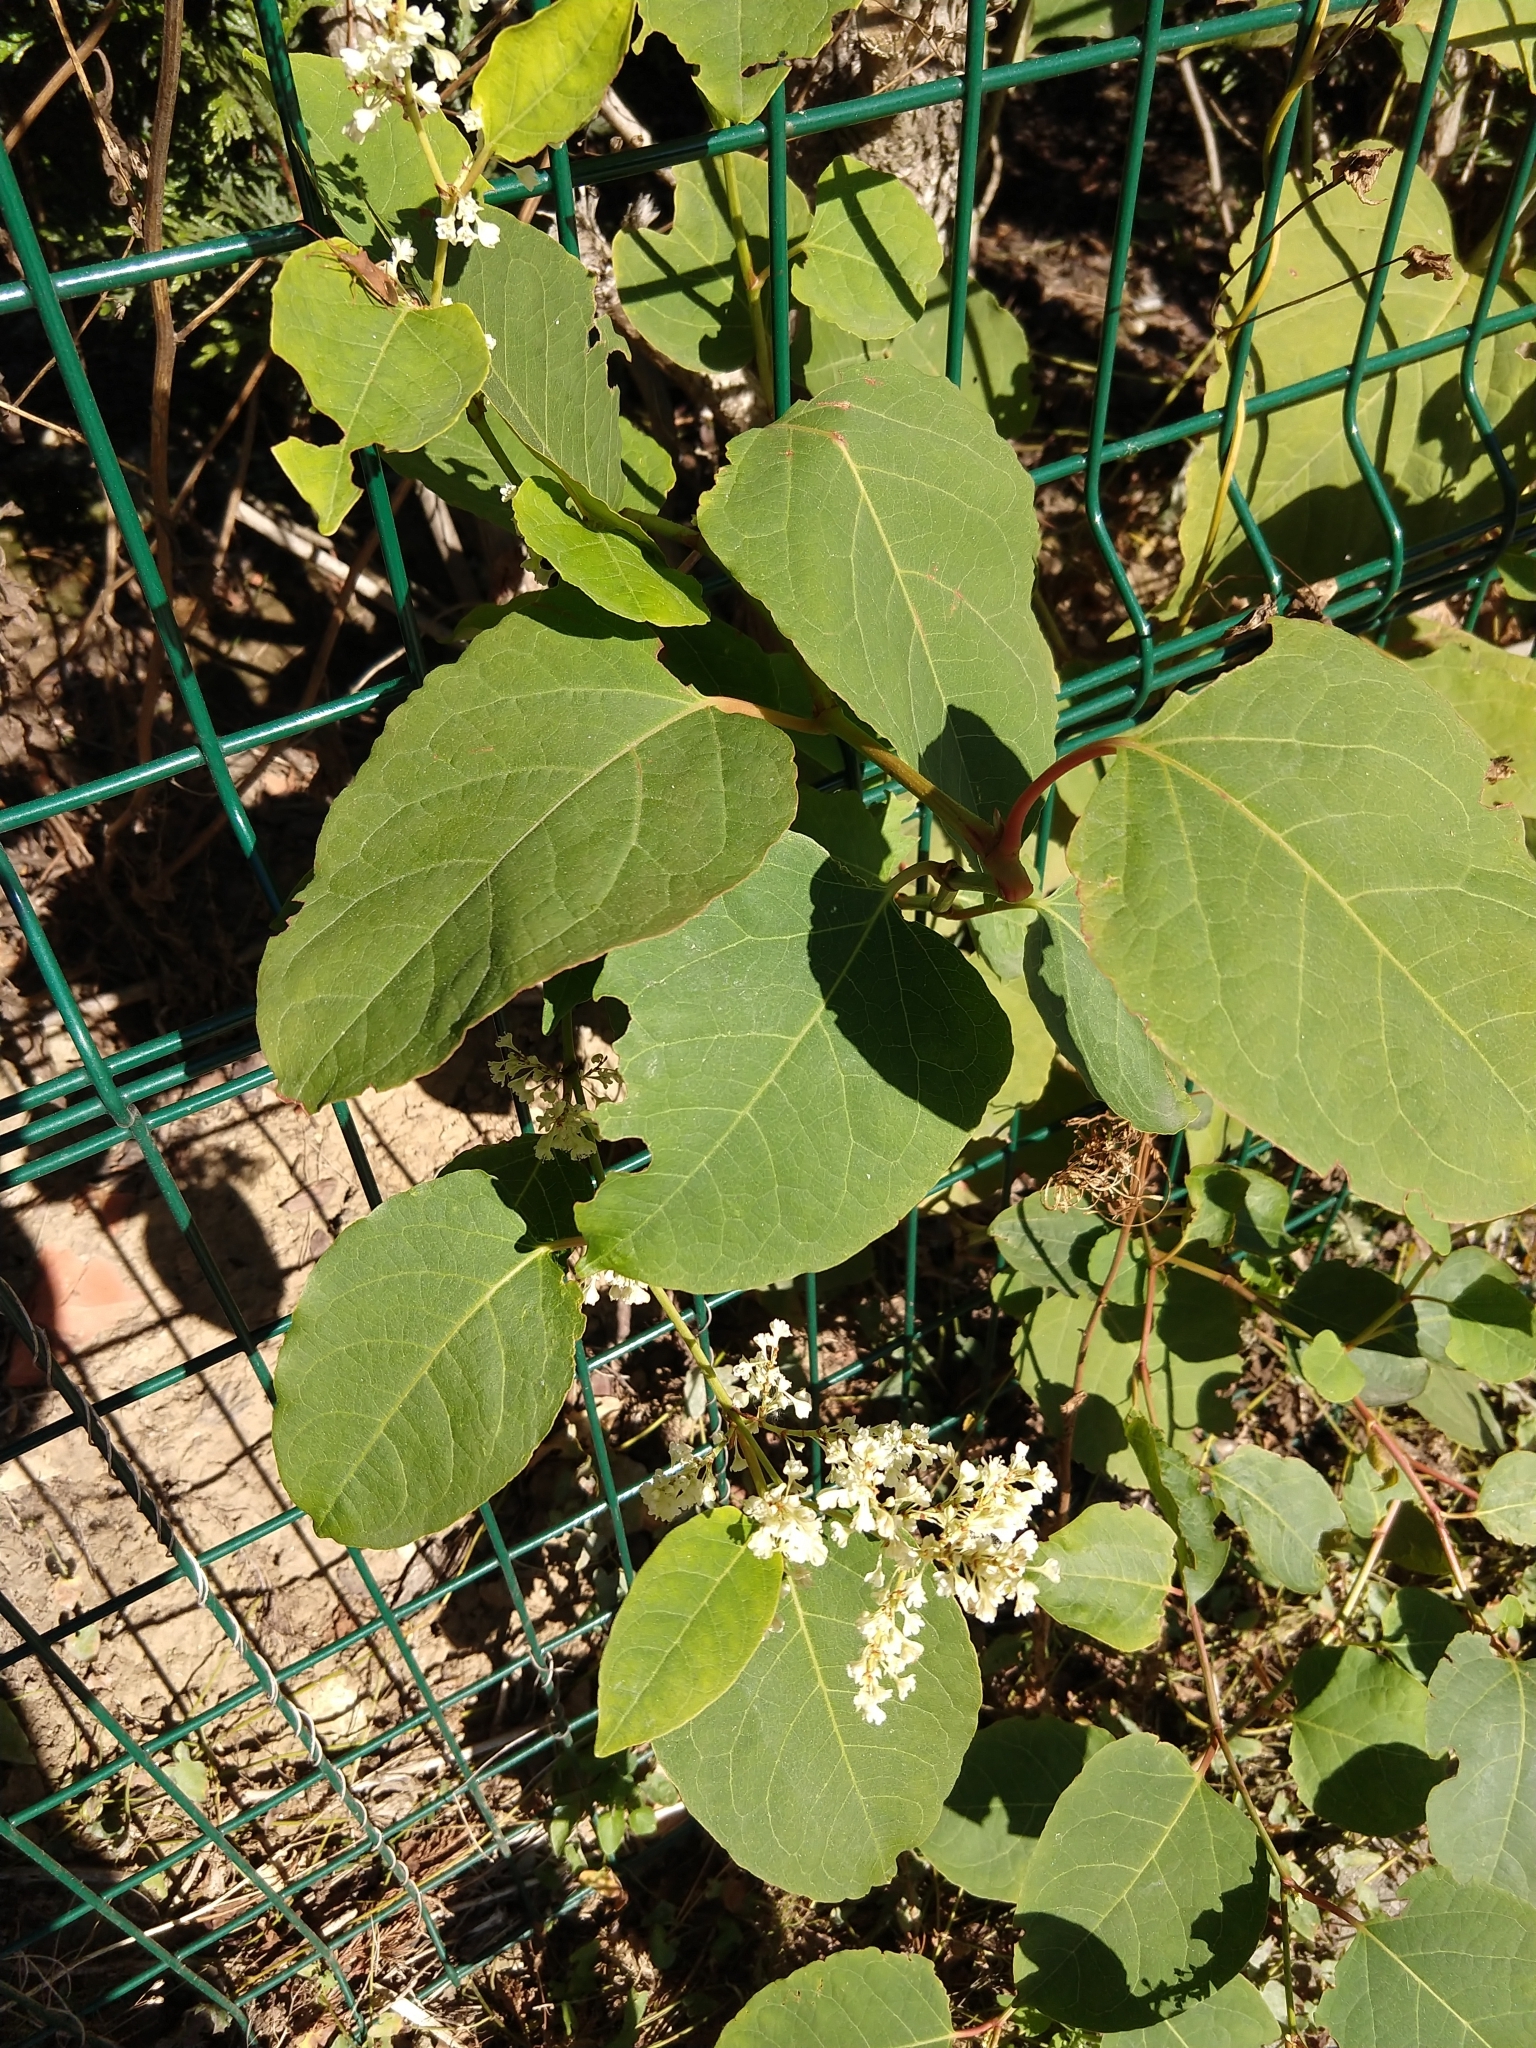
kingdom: Plantae
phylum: Tracheophyta
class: Magnoliopsida
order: Caryophyllales
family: Polygonaceae
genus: Reynoutria
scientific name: Reynoutria japonica
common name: Japanese knotweed
